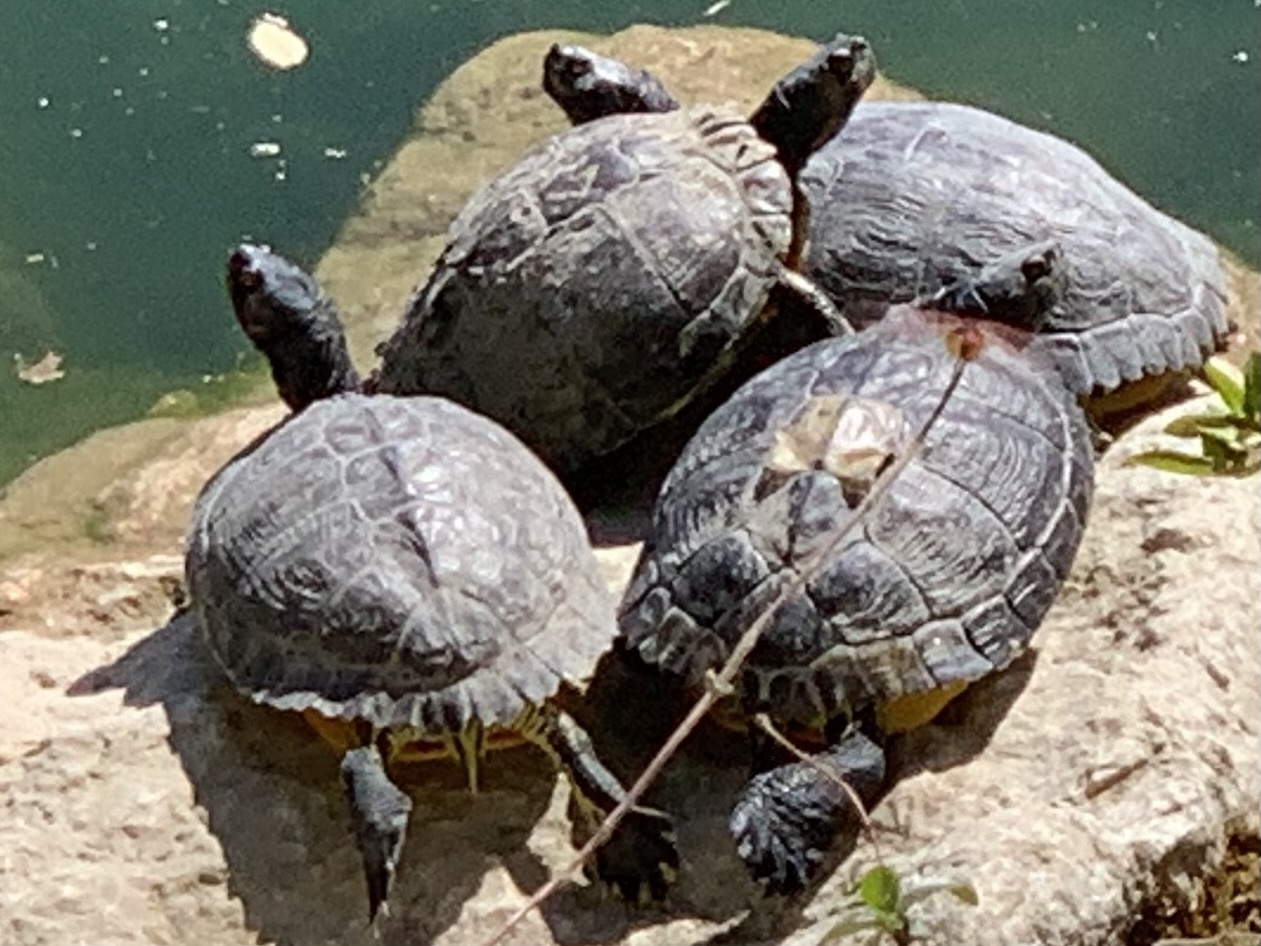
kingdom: Animalia
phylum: Chordata
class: Testudines
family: Emydidae
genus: Trachemys
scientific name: Trachemys scripta
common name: Slider
